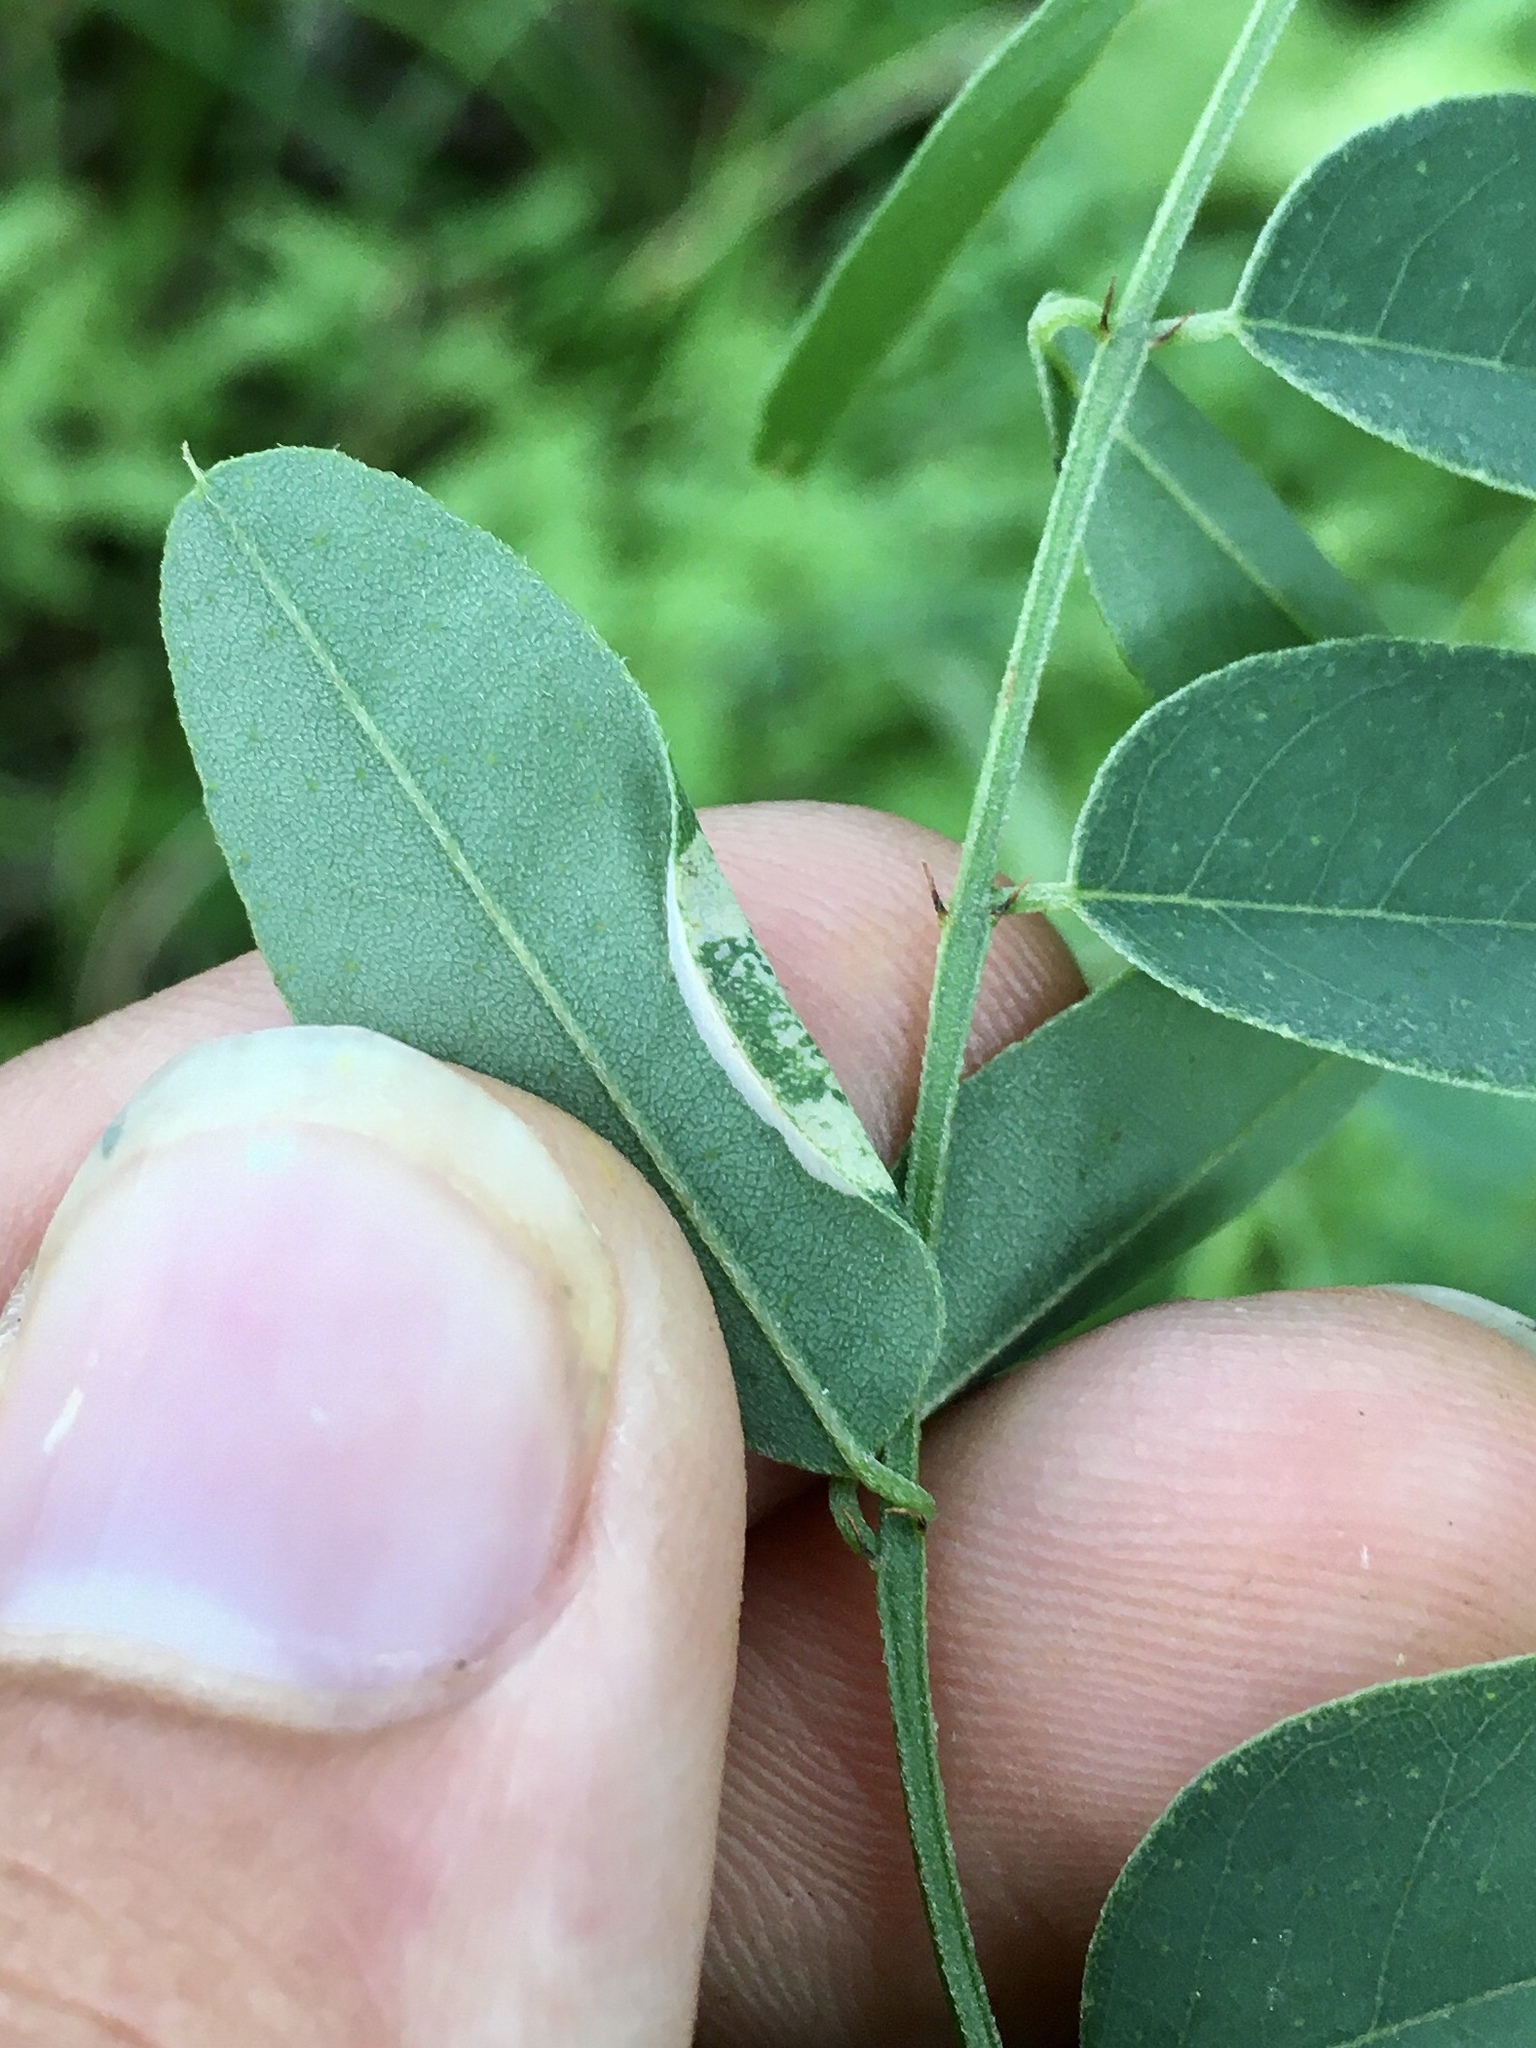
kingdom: Animalia
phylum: Arthropoda
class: Insecta
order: Lepidoptera
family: Gracillariidae
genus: Macrosaccus
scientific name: Macrosaccus uhlerella
